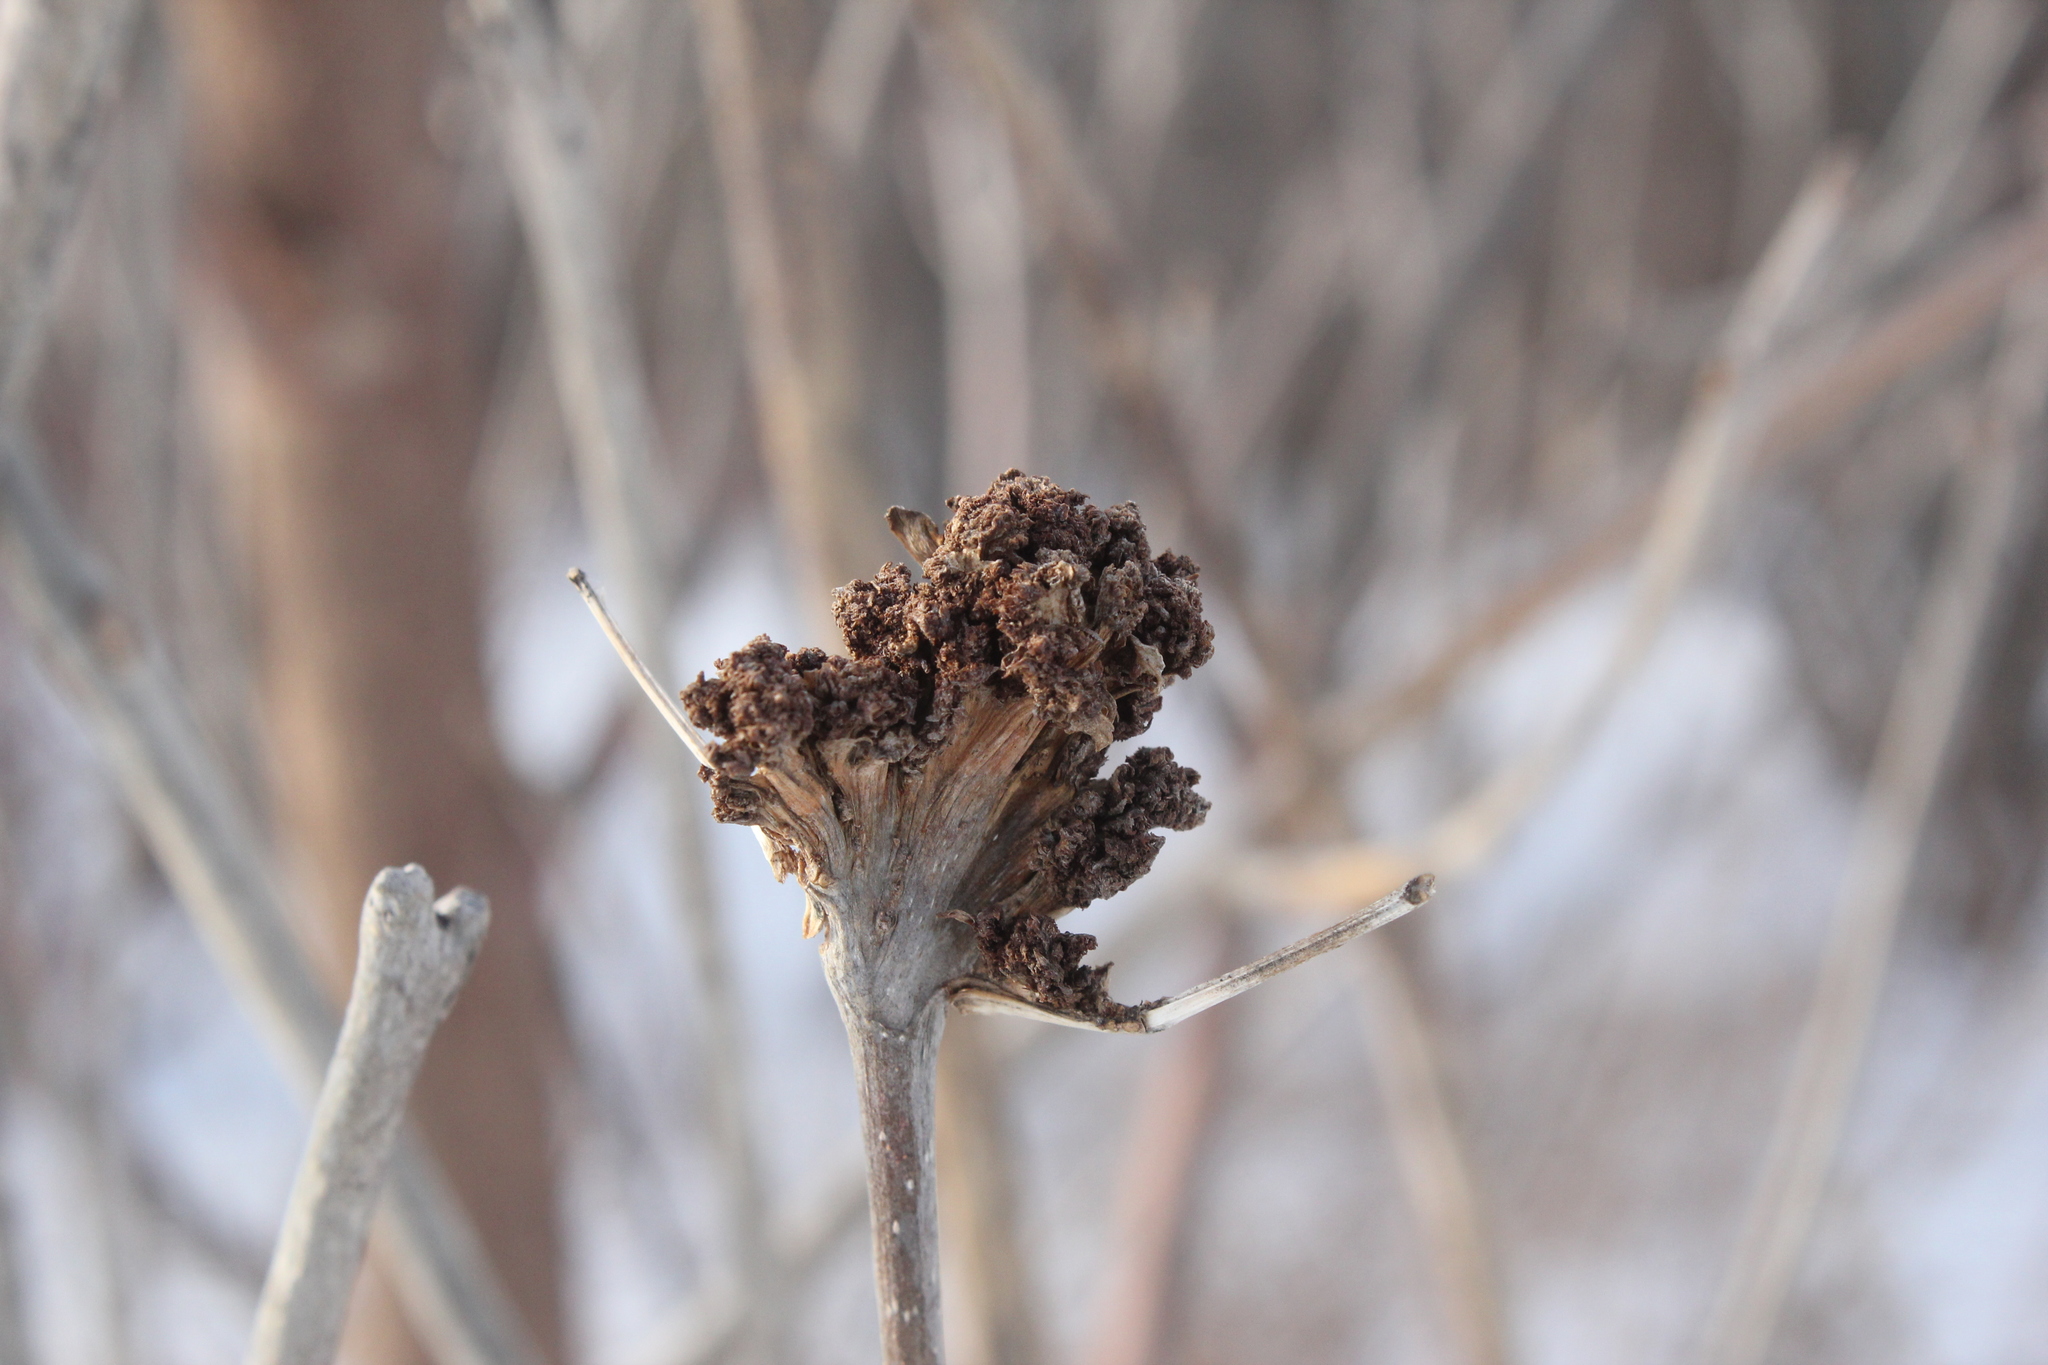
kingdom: Animalia
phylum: Arthropoda
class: Arachnida
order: Trombidiformes
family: Eriophyidae
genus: Aceria
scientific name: Aceria fraxiniflora
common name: Ash flower gall mite
